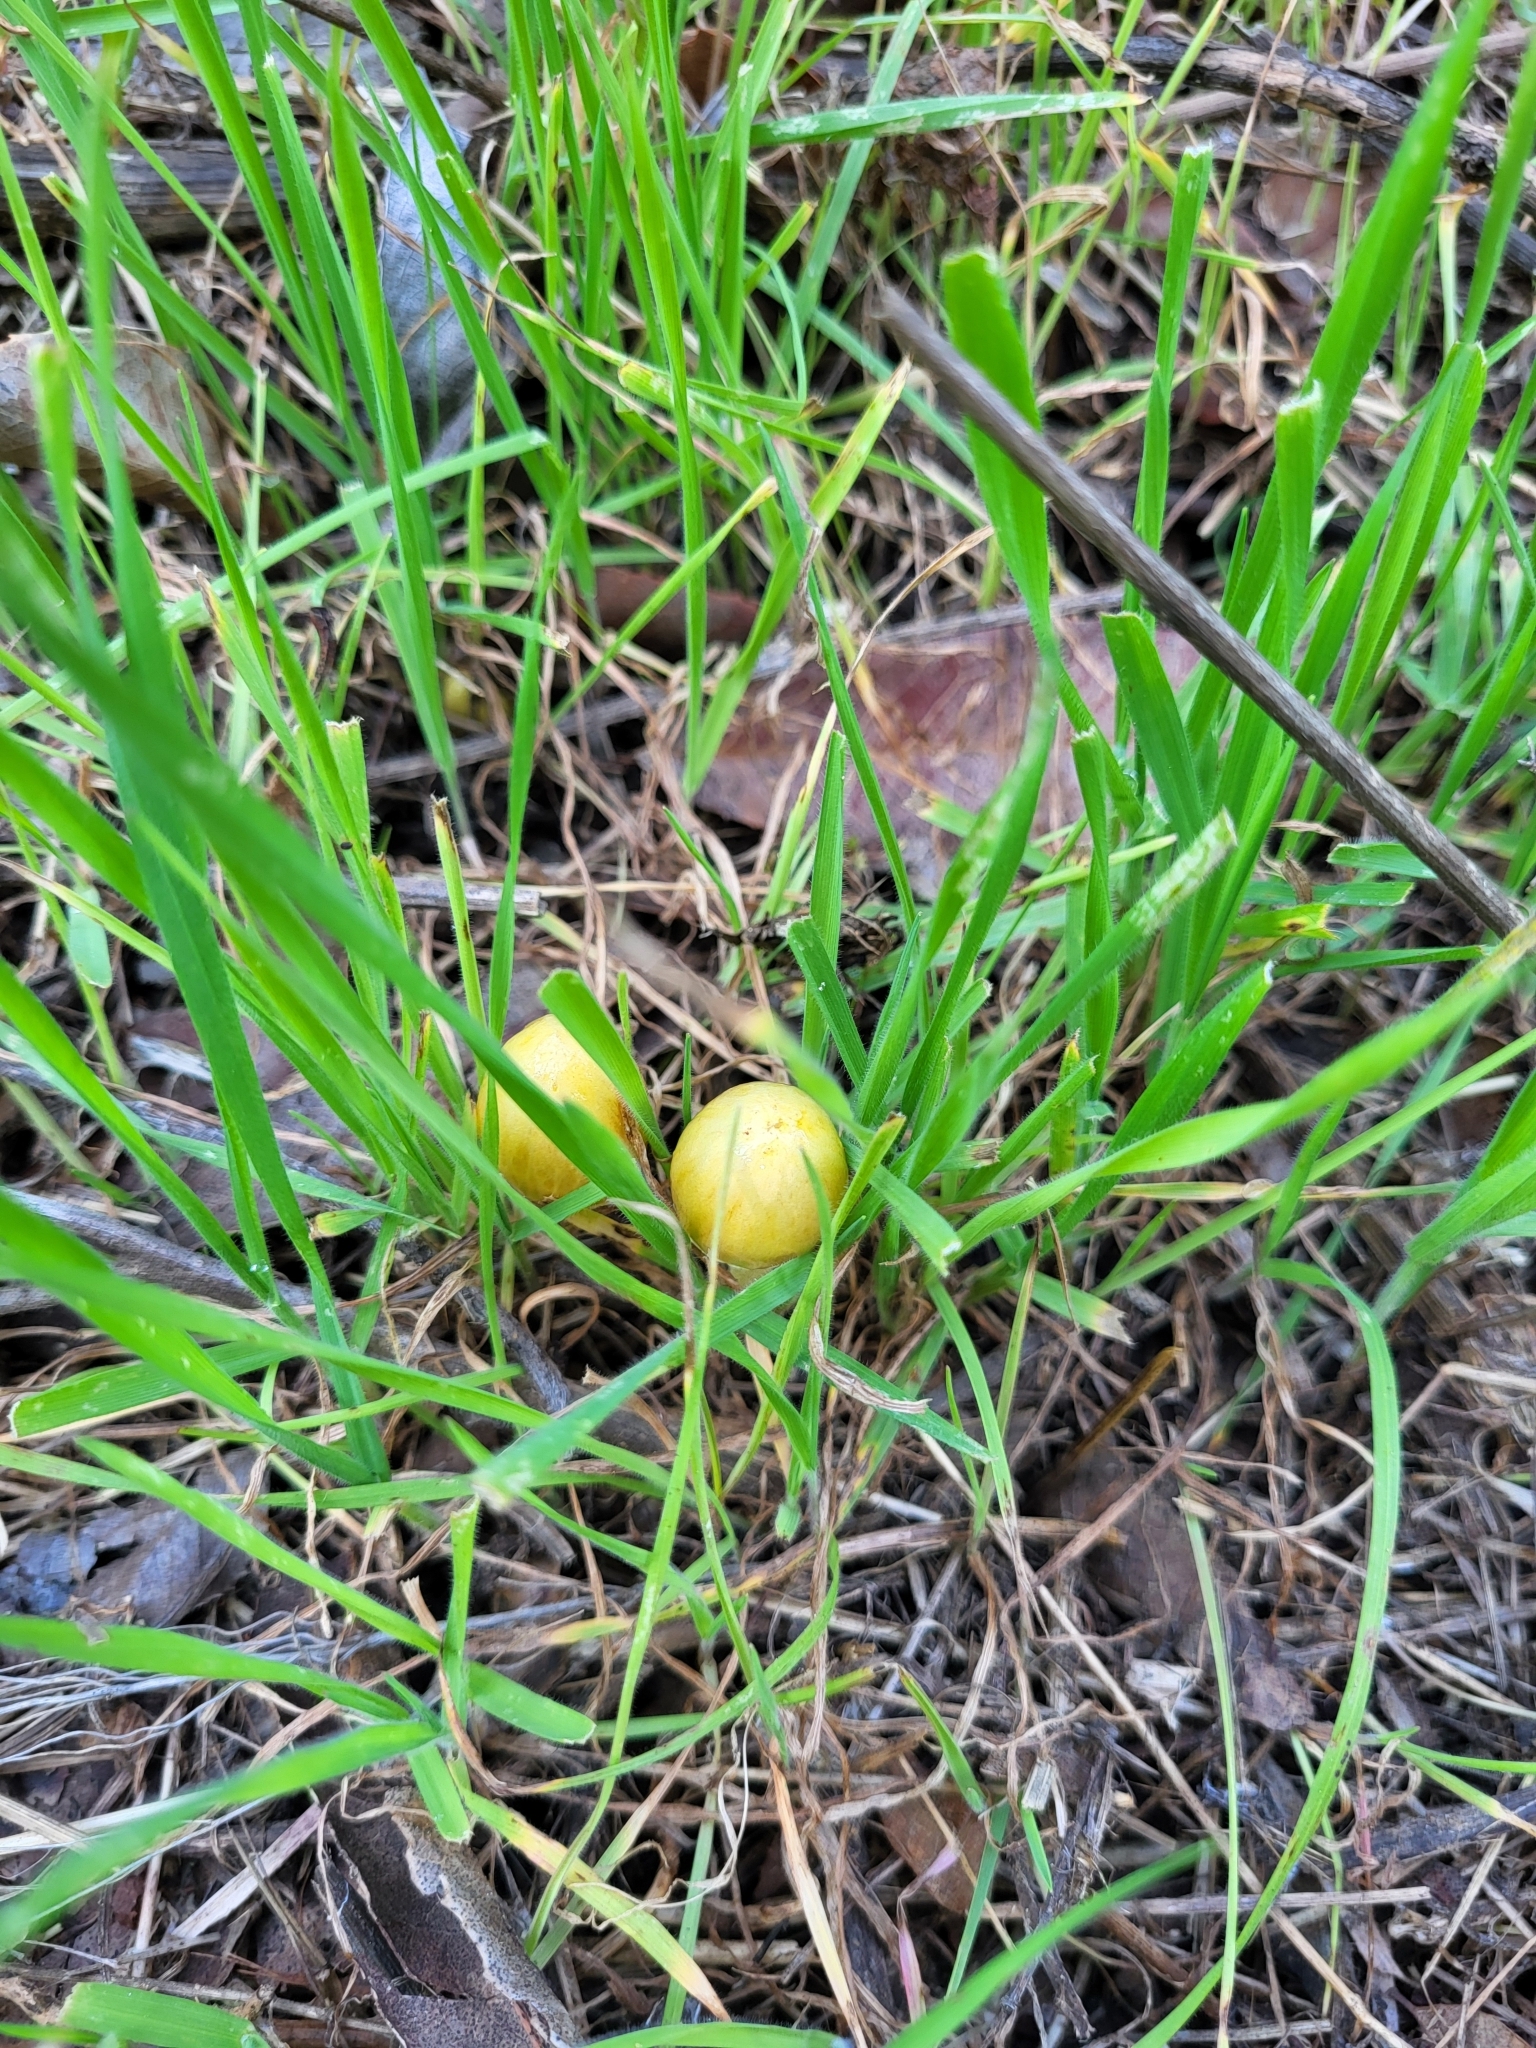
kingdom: Fungi
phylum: Basidiomycota
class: Agaricomycetes
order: Agaricales
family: Bolbitiaceae
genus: Bolbitius
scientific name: Bolbitius titubans
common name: Yellow fieldcap
